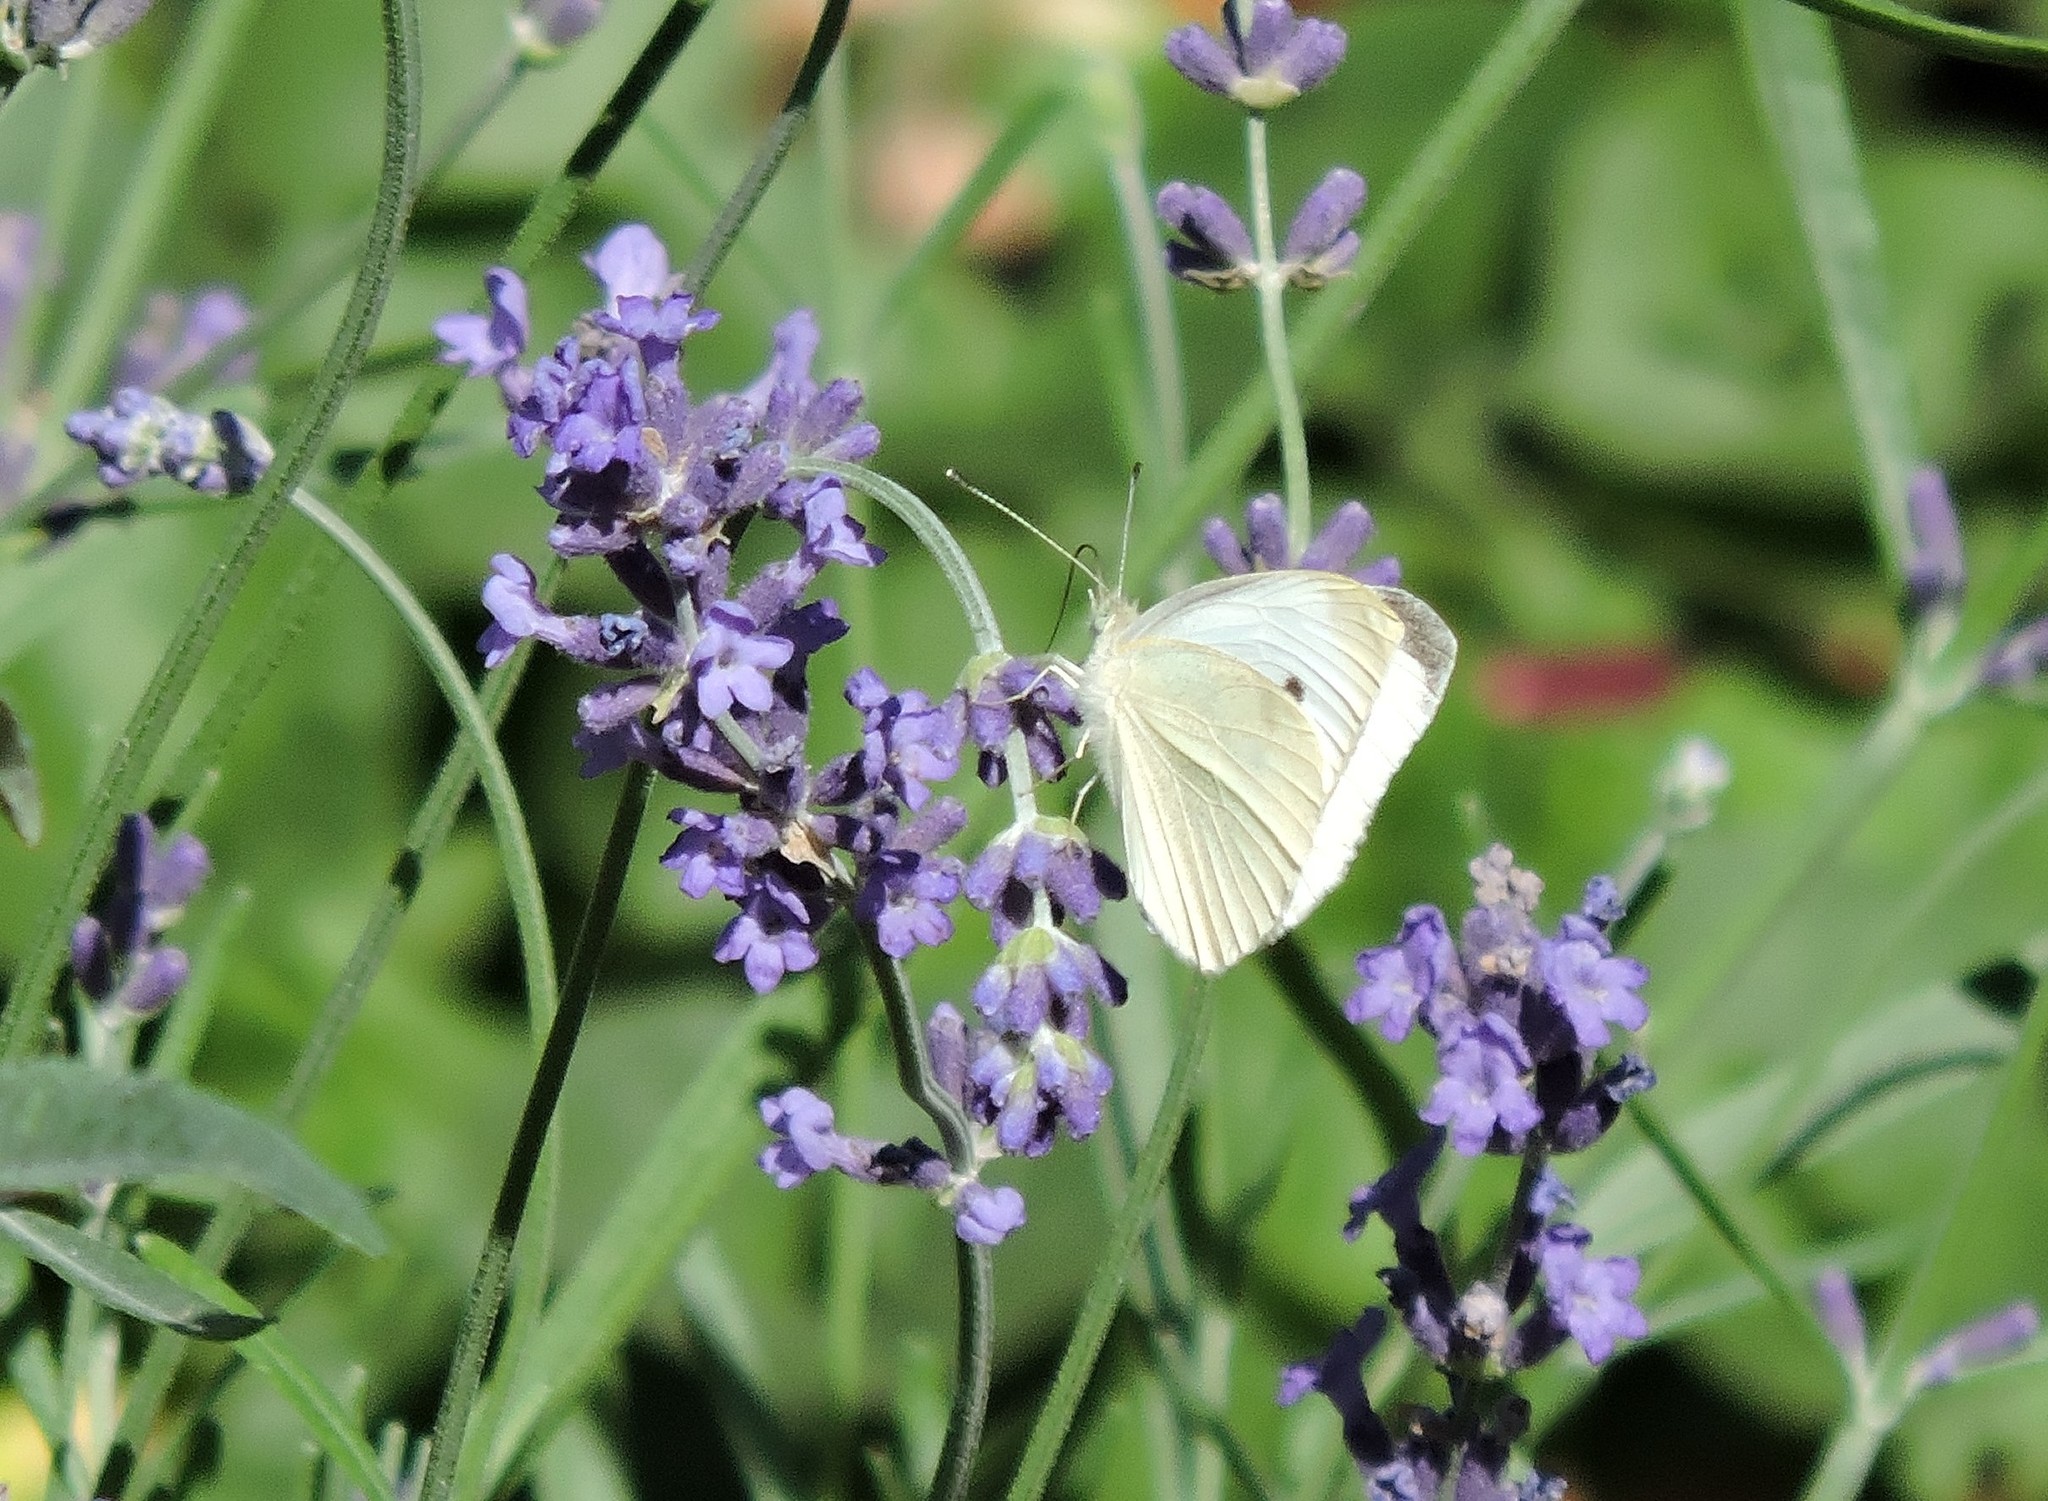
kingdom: Animalia
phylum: Arthropoda
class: Insecta
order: Lepidoptera
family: Pieridae
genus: Pieris
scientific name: Pieris rapae
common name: Small white
